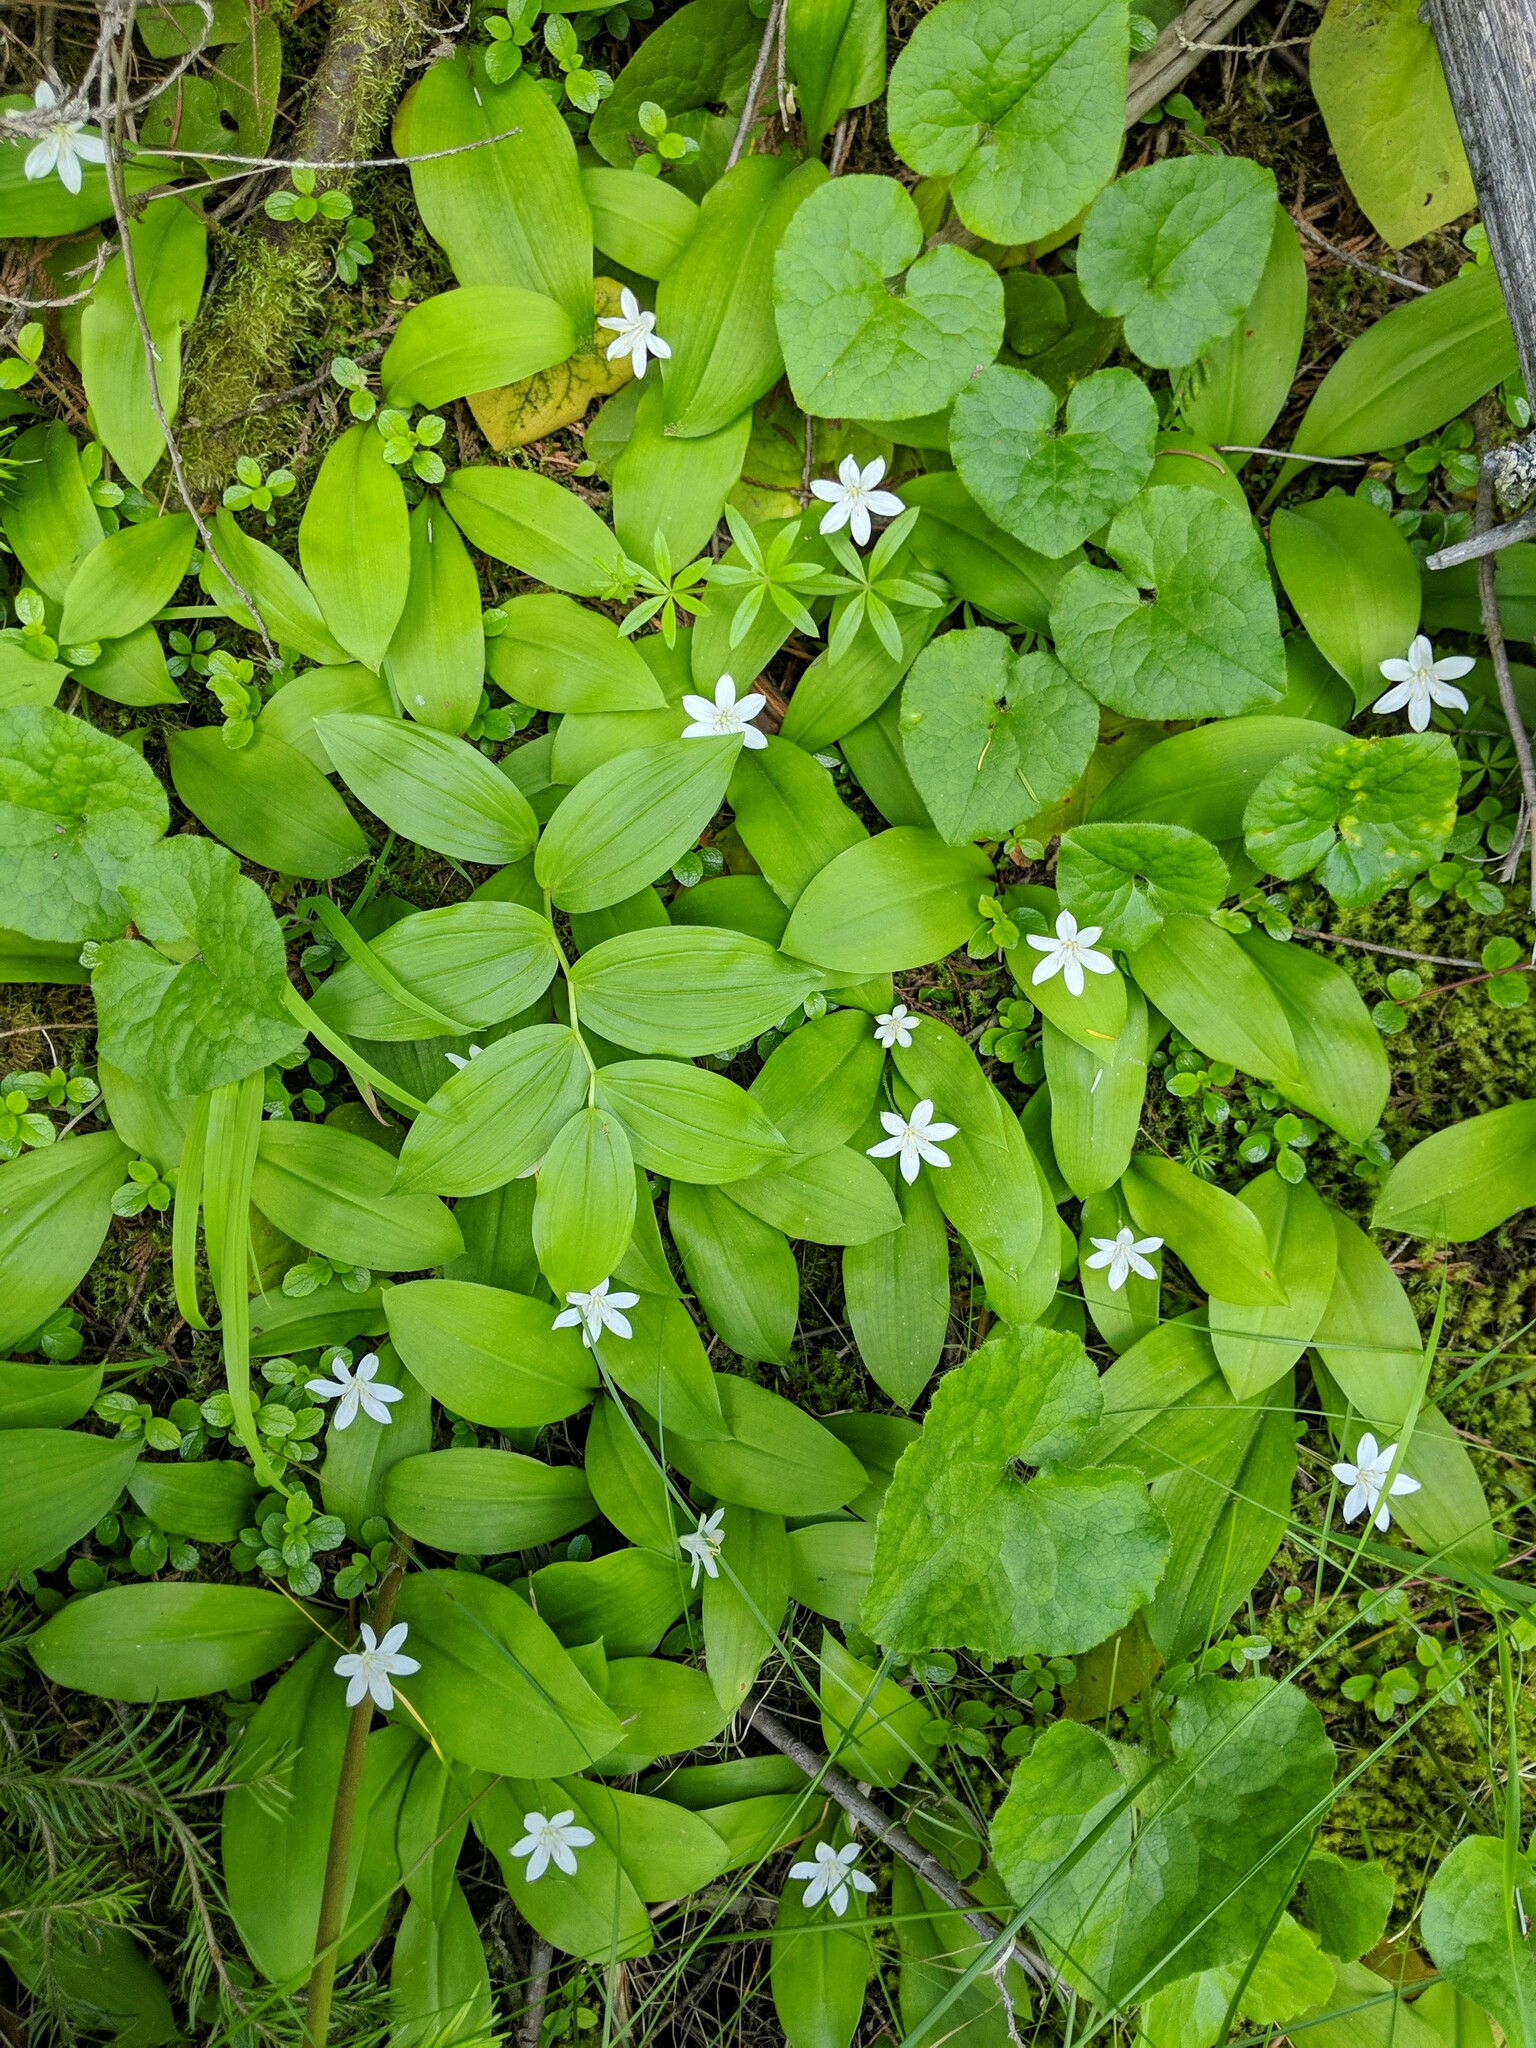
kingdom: Plantae
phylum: Tracheophyta
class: Liliopsida
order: Liliales
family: Liliaceae
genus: Clintonia
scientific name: Clintonia uniflora
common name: Queen's cup
